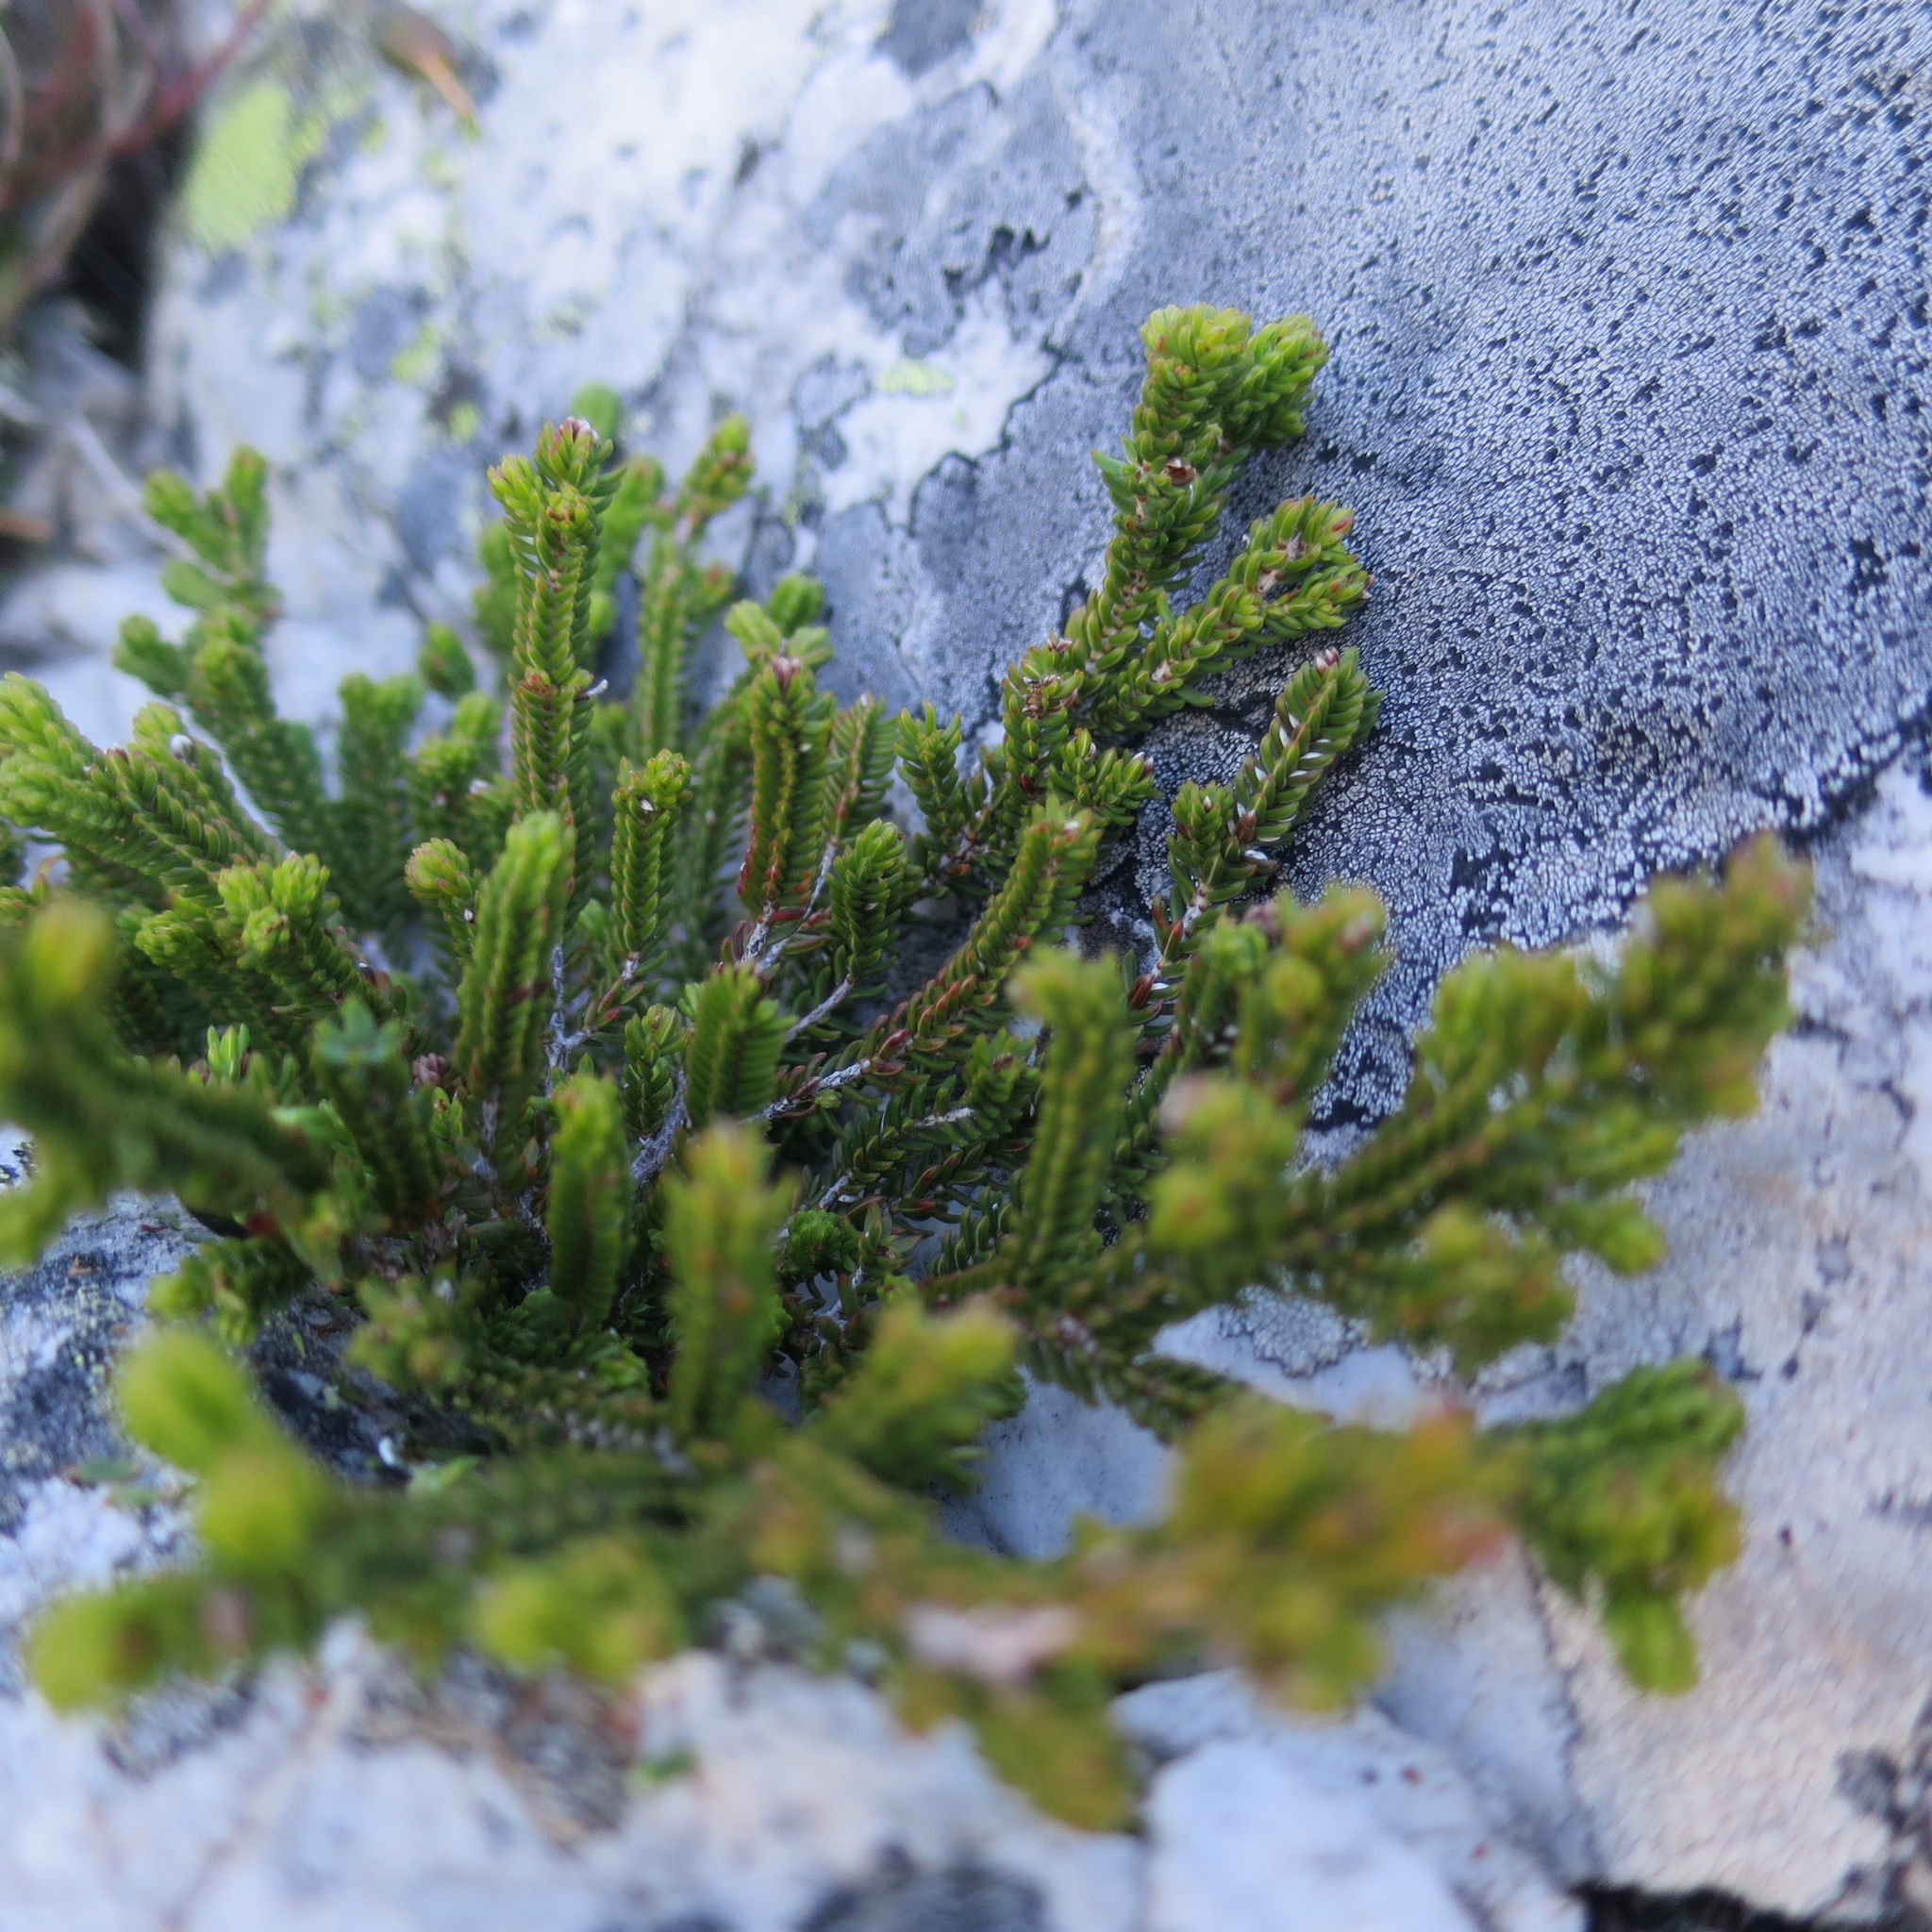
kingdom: Plantae
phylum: Tracheophyta
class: Magnoliopsida
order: Ericales
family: Ericaceae
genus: Erica
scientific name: Erica petraea
